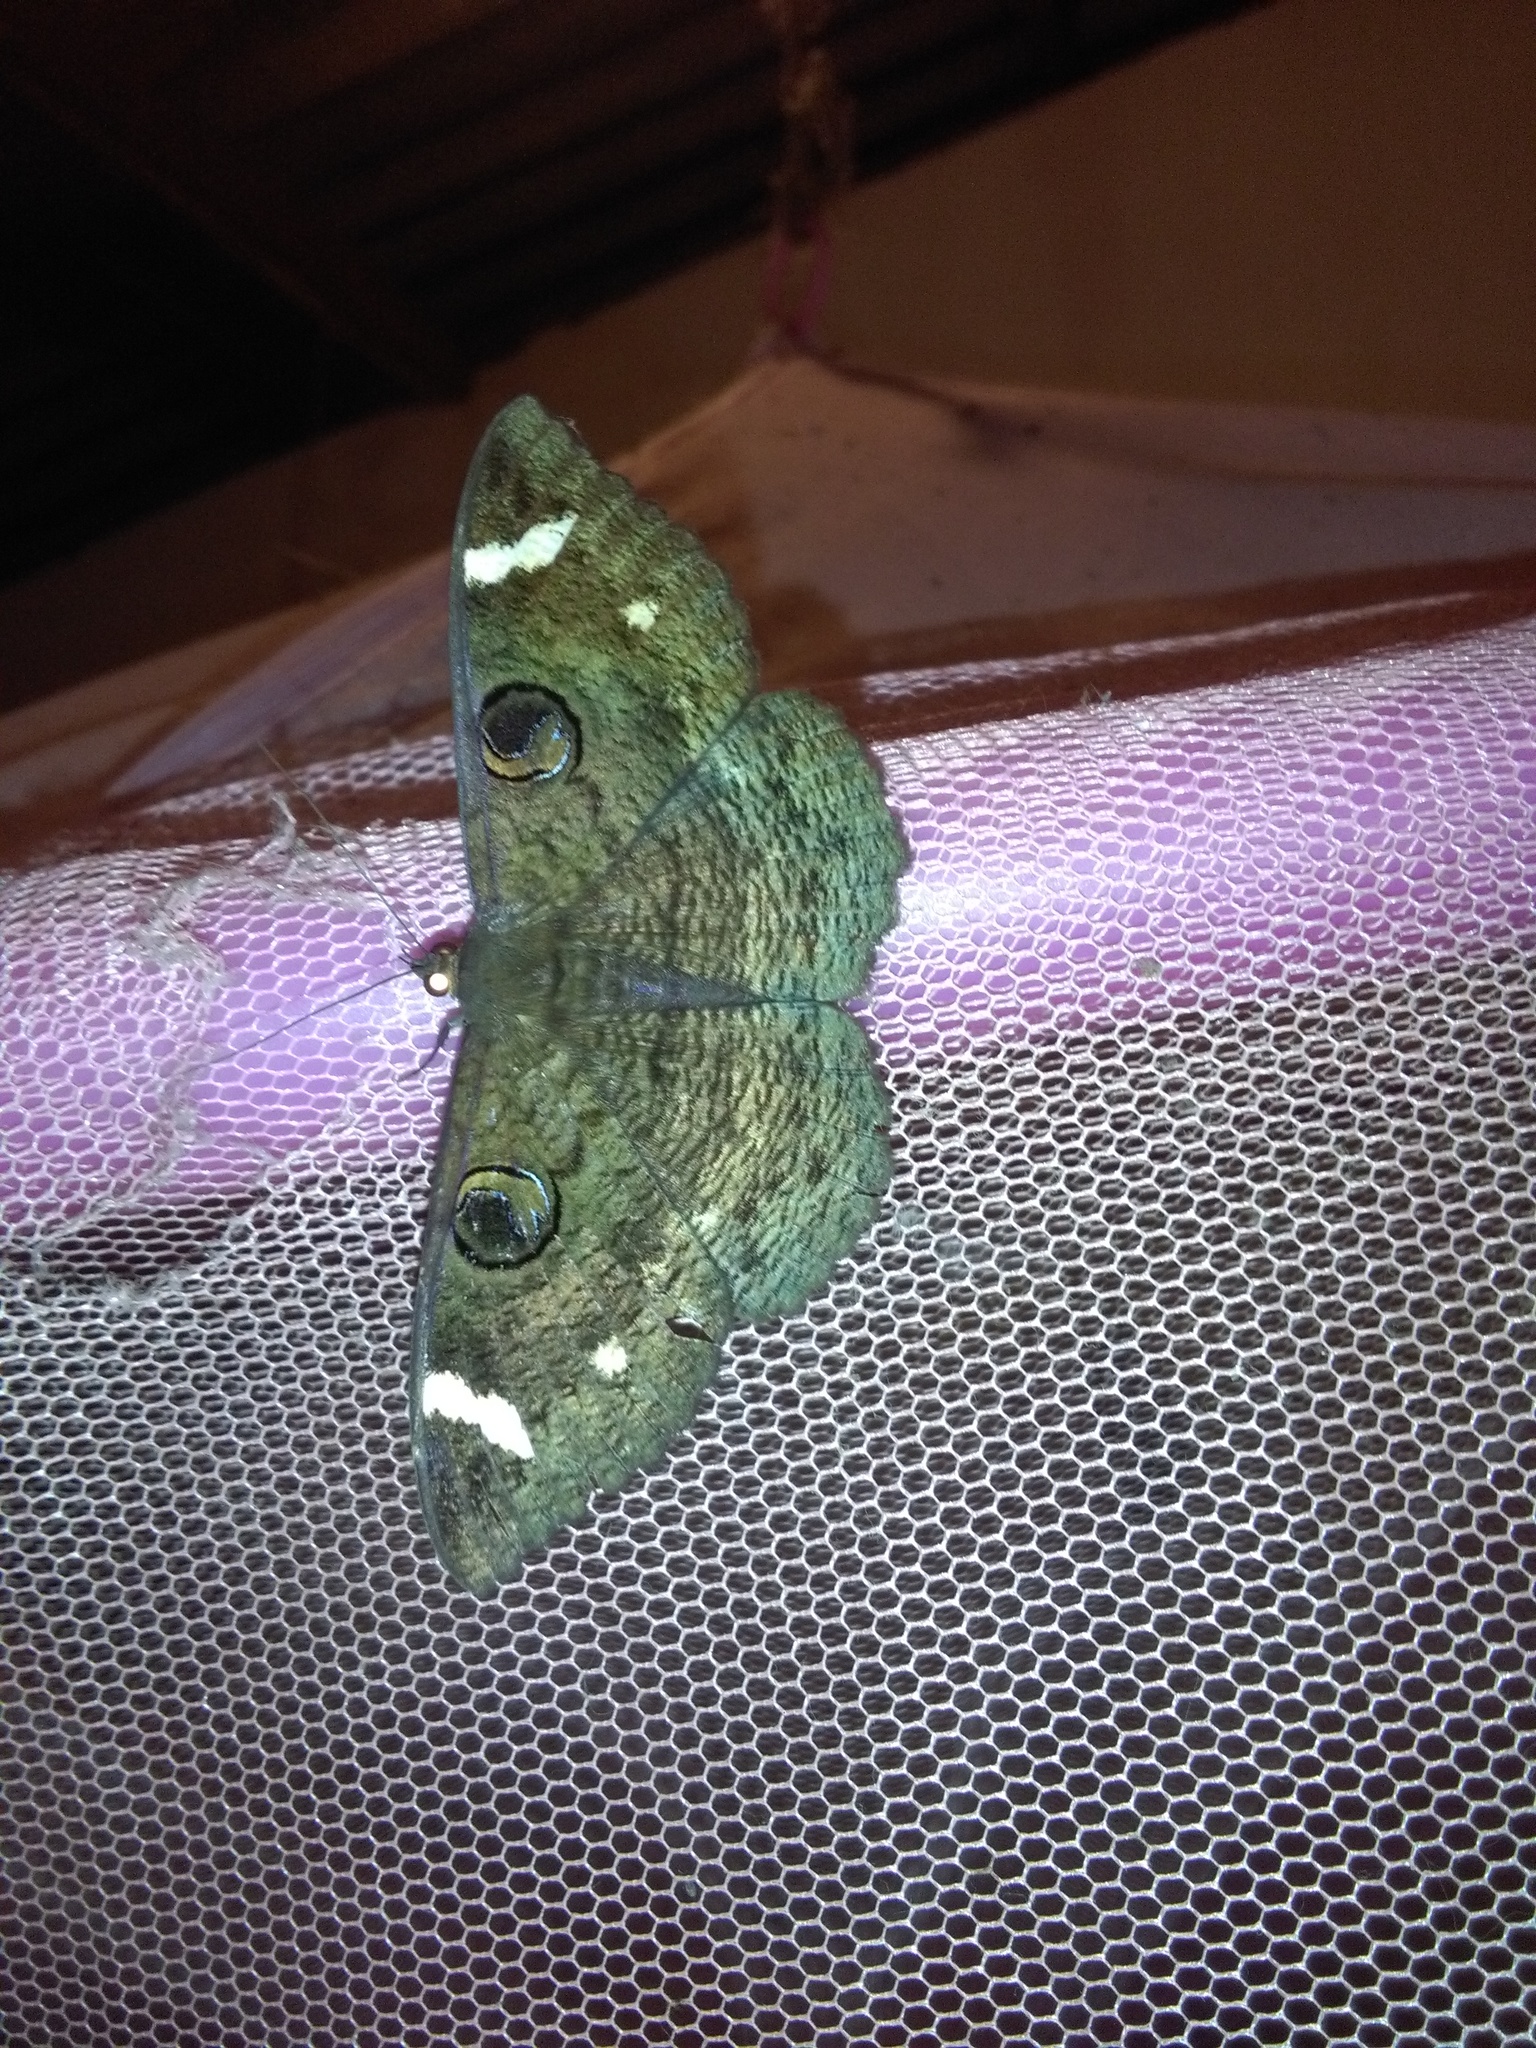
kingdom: Animalia
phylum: Arthropoda
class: Insecta
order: Lepidoptera
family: Erebidae
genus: Erebus
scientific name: Erebus hieroglyphica
